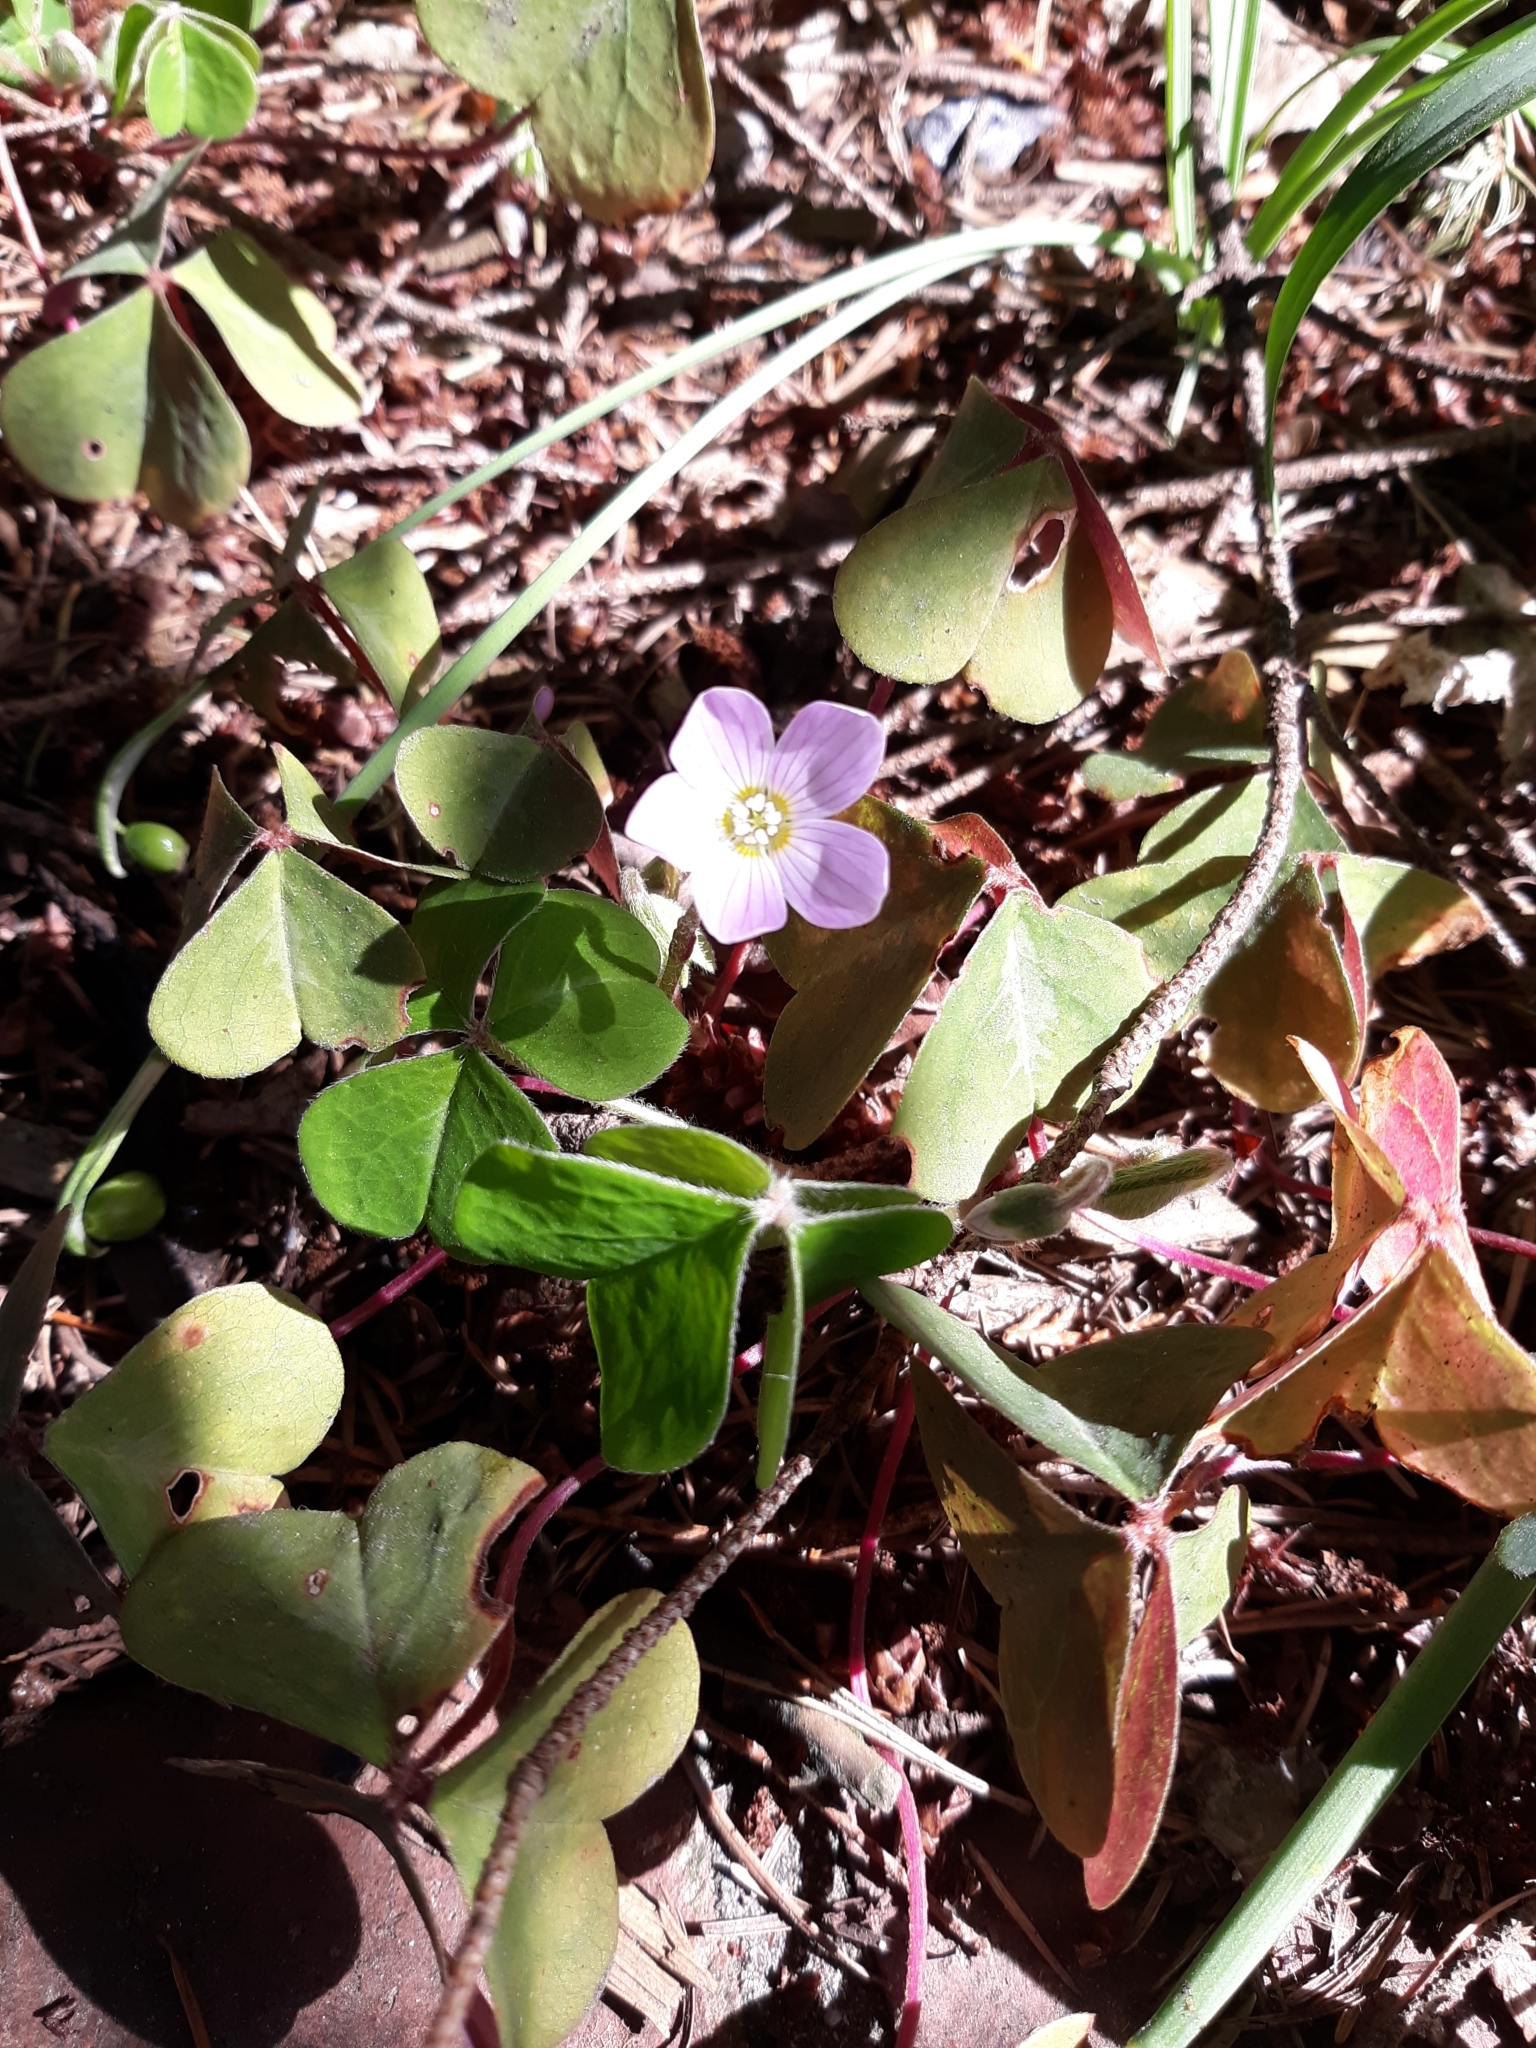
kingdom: Plantae
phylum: Tracheophyta
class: Magnoliopsida
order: Oxalidales
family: Oxalidaceae
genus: Oxalis
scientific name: Oxalis oregana
